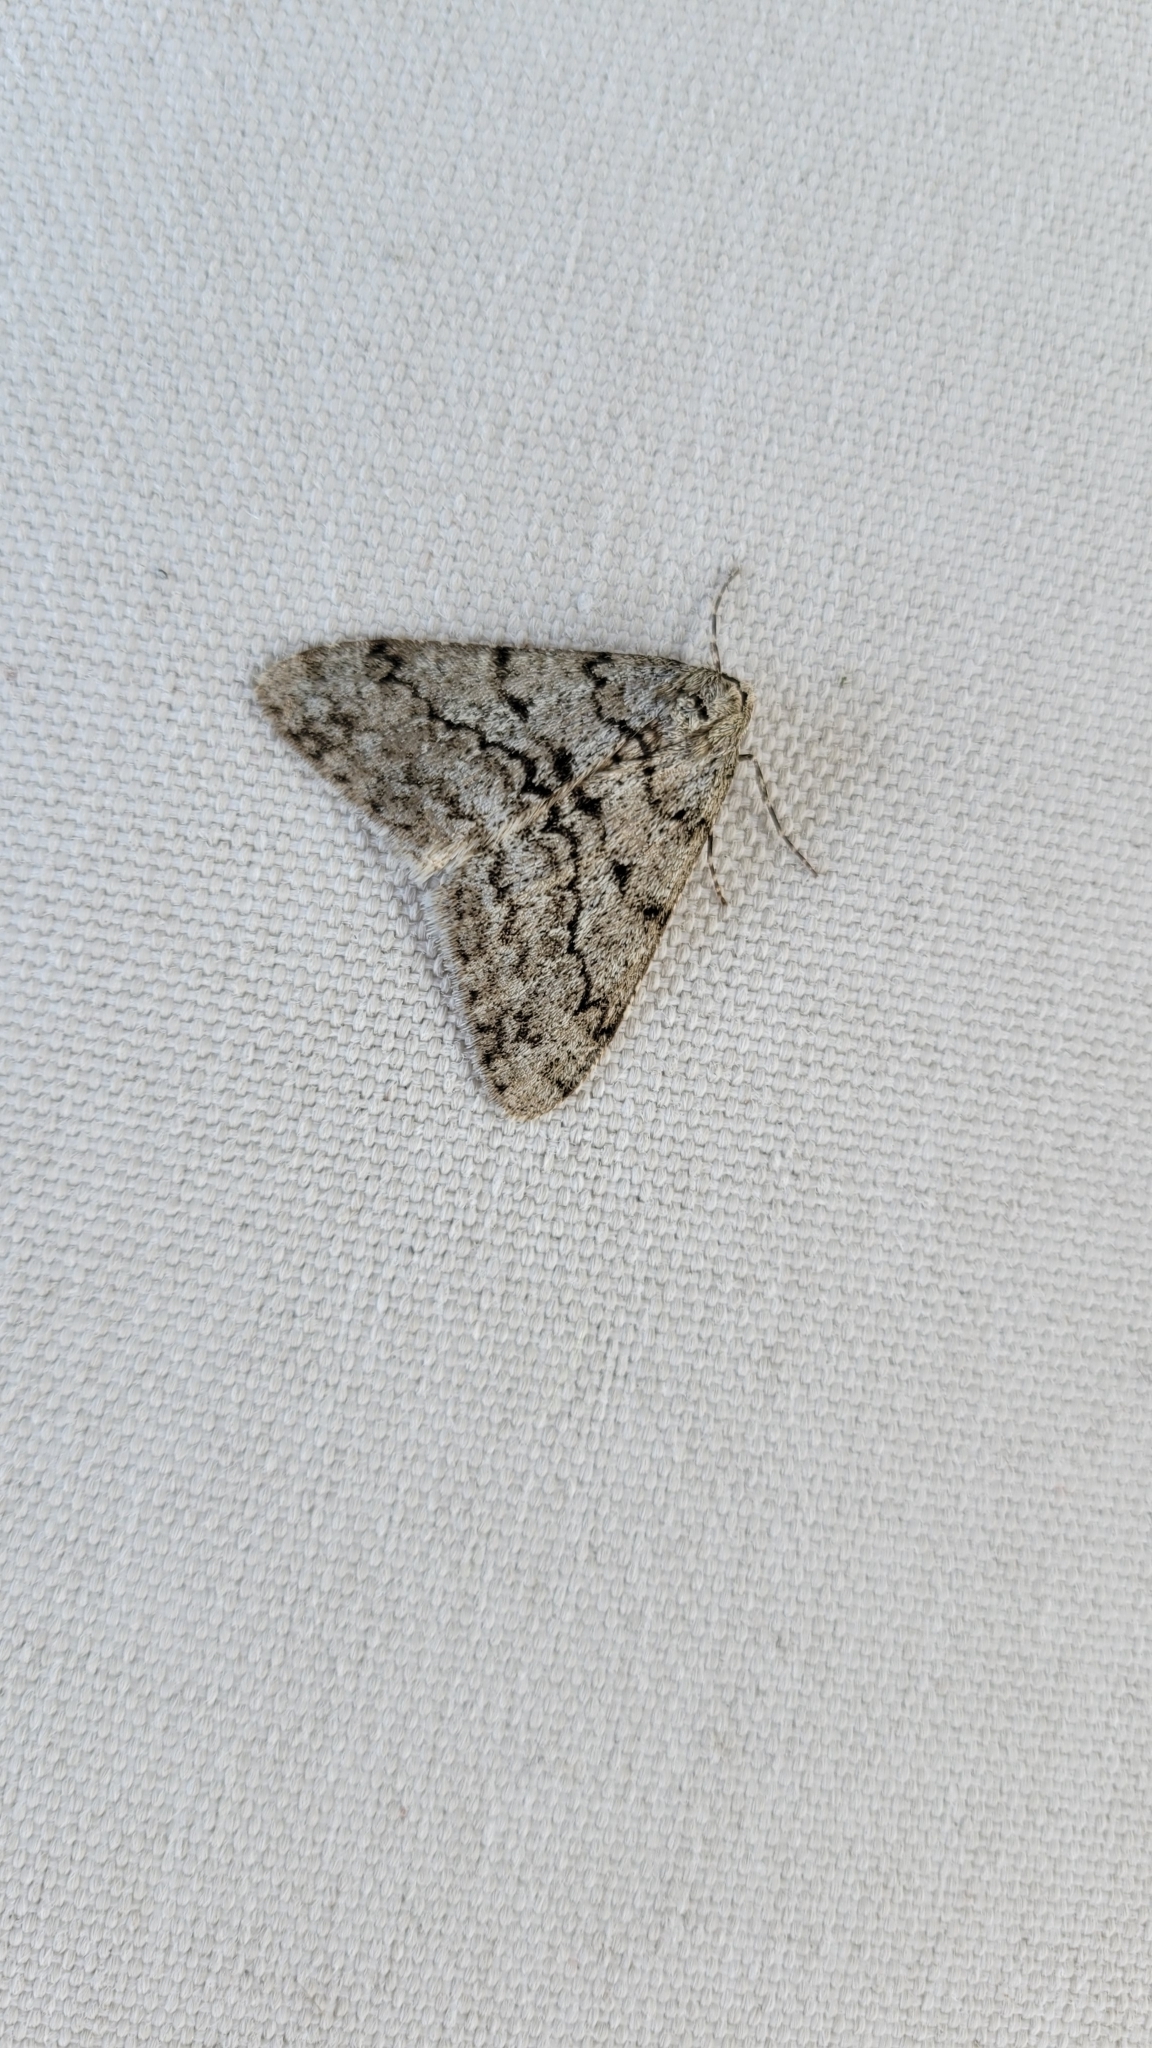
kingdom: Animalia
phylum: Arthropoda
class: Insecta
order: Lepidoptera
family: Geometridae
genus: Phigalia
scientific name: Phigalia strigataria
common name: Small phigalia
